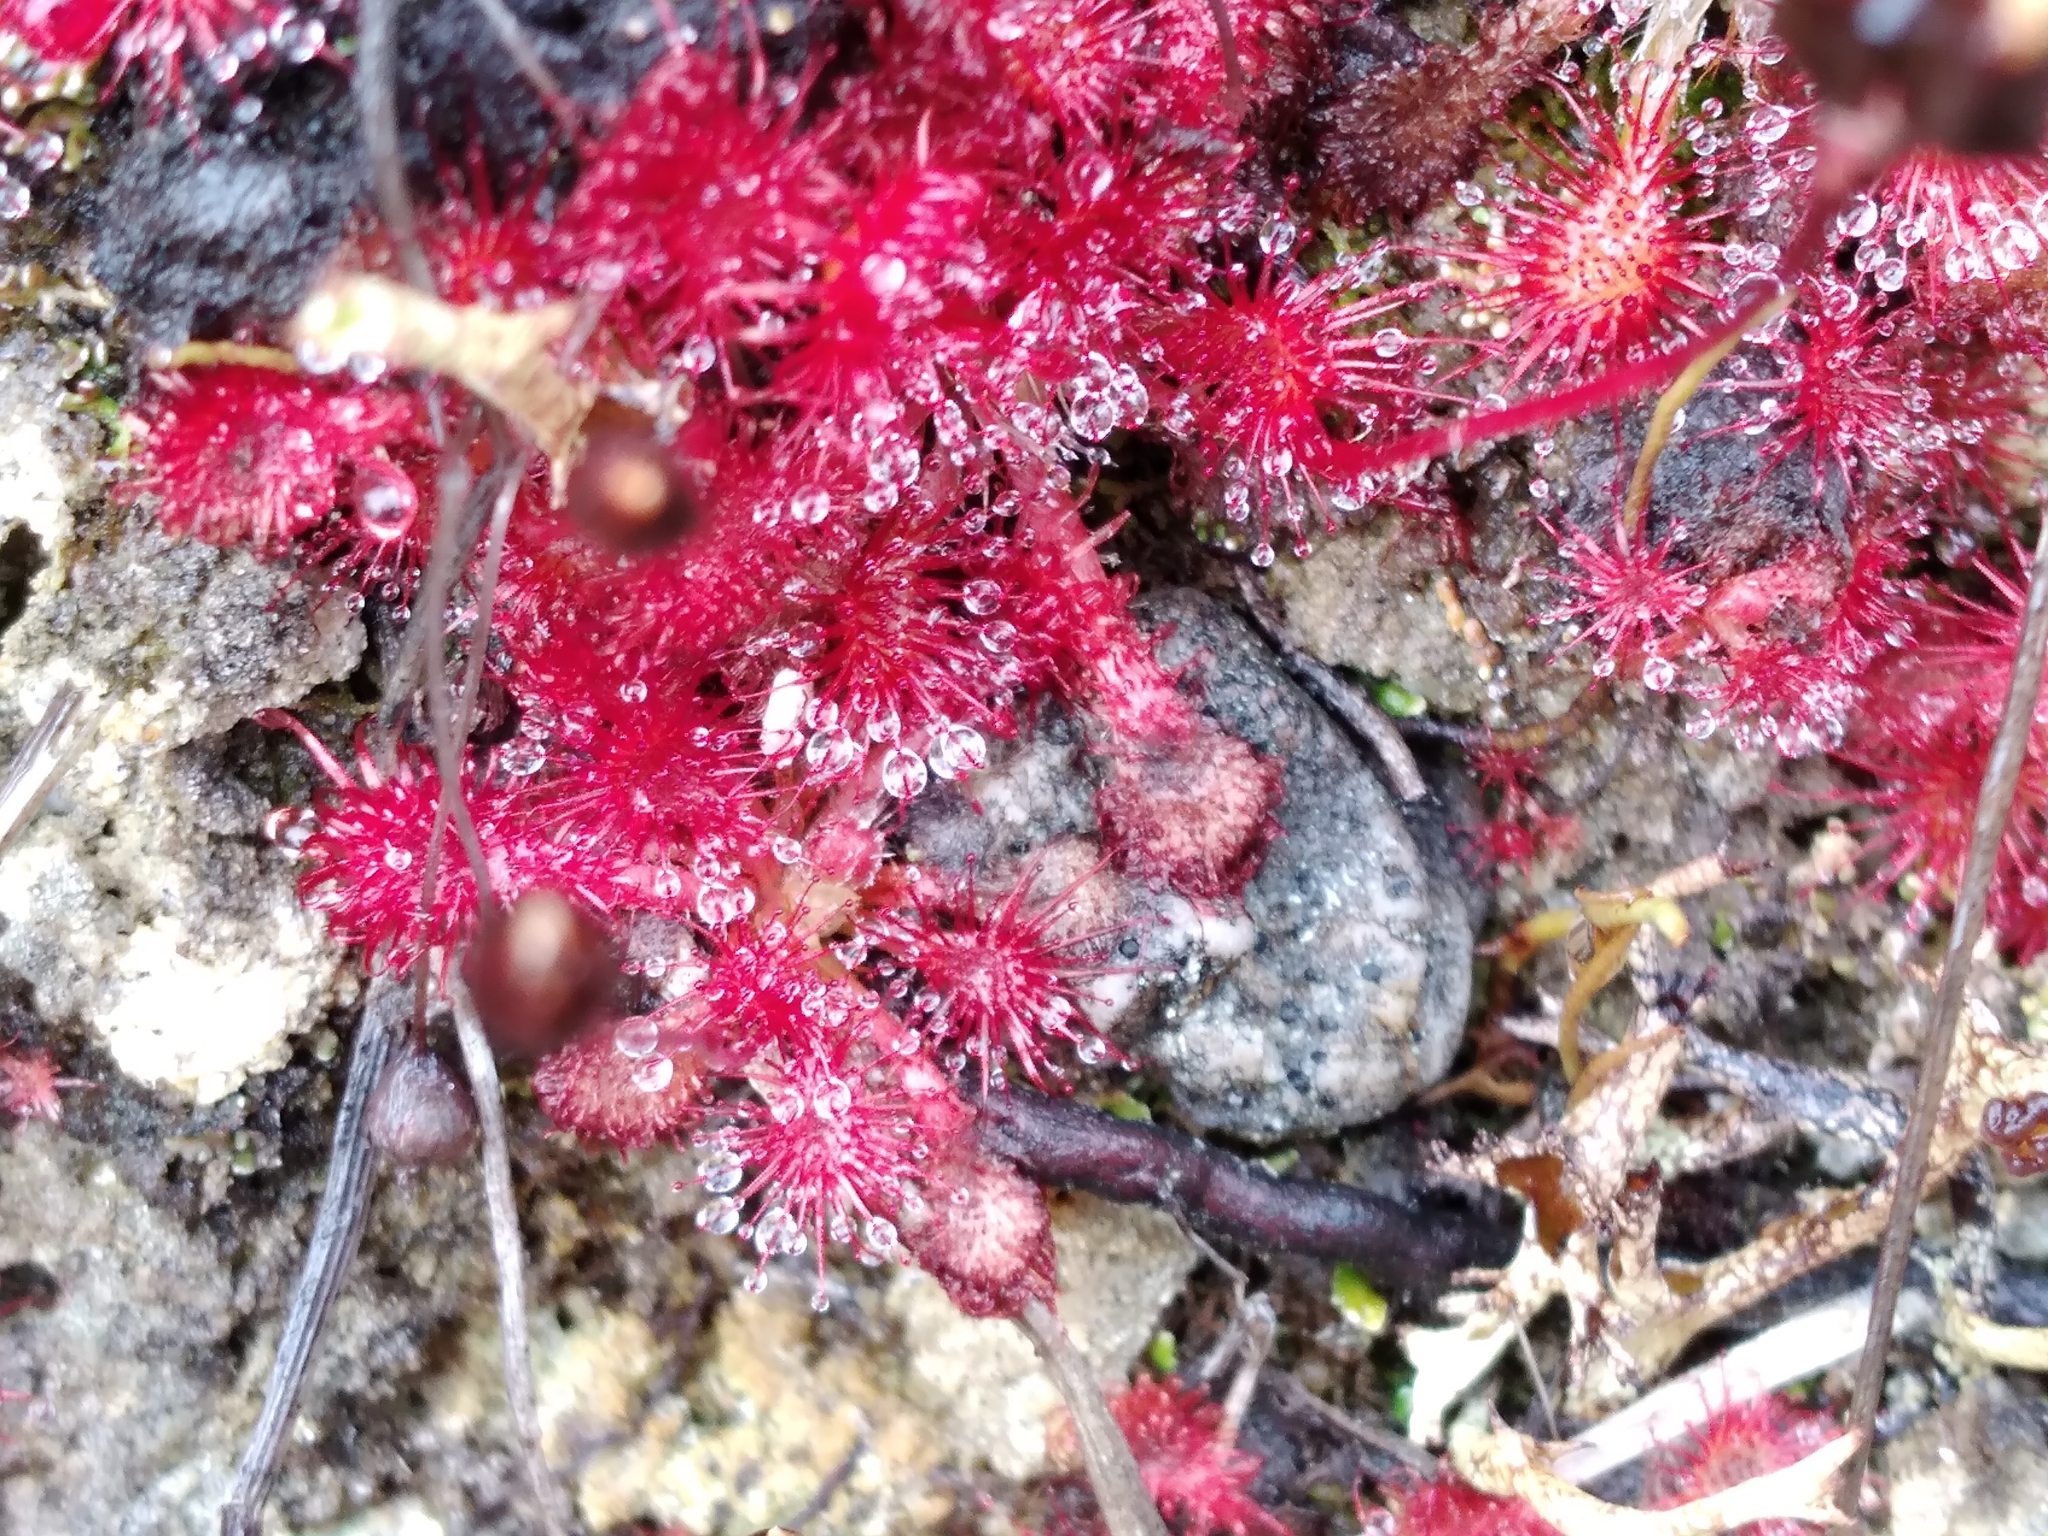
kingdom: Plantae
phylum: Tracheophyta
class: Magnoliopsida
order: Caryophyllales
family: Droseraceae
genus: Drosera
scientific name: Drosera spatulata
